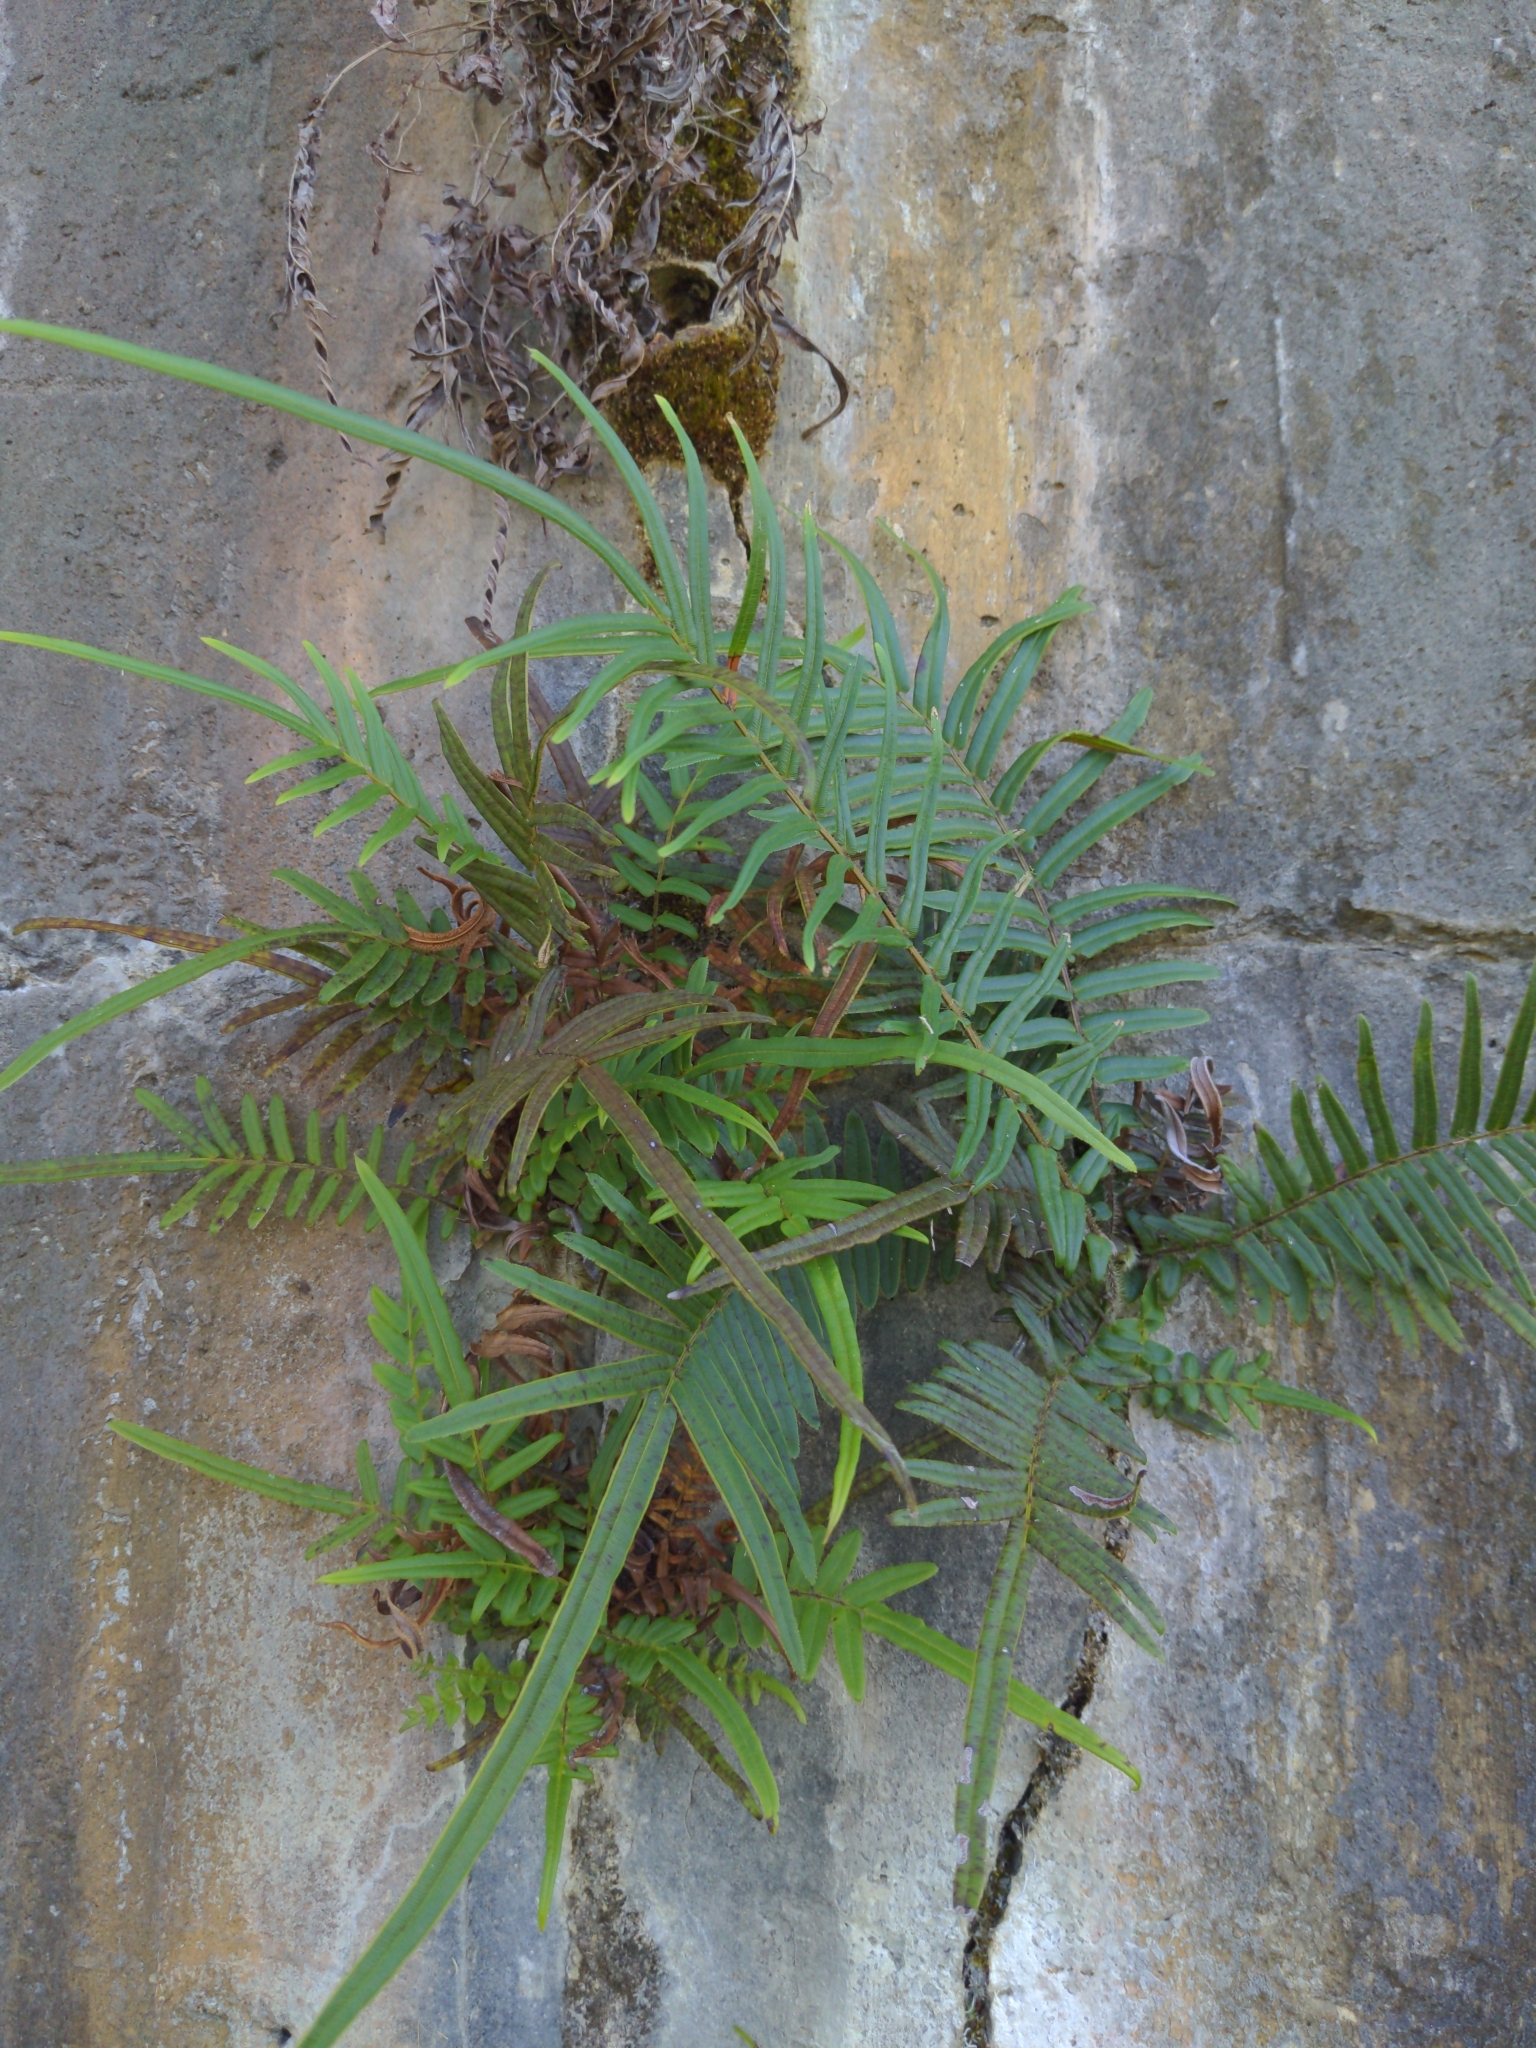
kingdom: Plantae
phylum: Tracheophyta
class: Polypodiopsida
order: Polypodiales
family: Pteridaceae
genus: Pteris
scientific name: Pteris vittata
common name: Ladder brake
